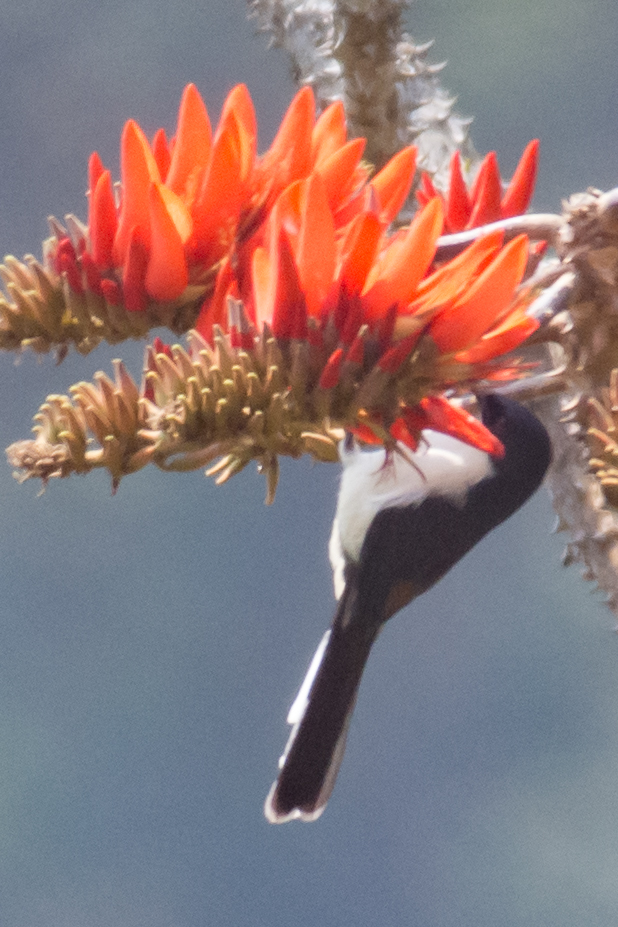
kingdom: Animalia
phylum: Chordata
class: Aves
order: Passeriformes
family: Leiothrichidae
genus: Heterophasia
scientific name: Heterophasia melanoleuca
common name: Dark-backed sibia
